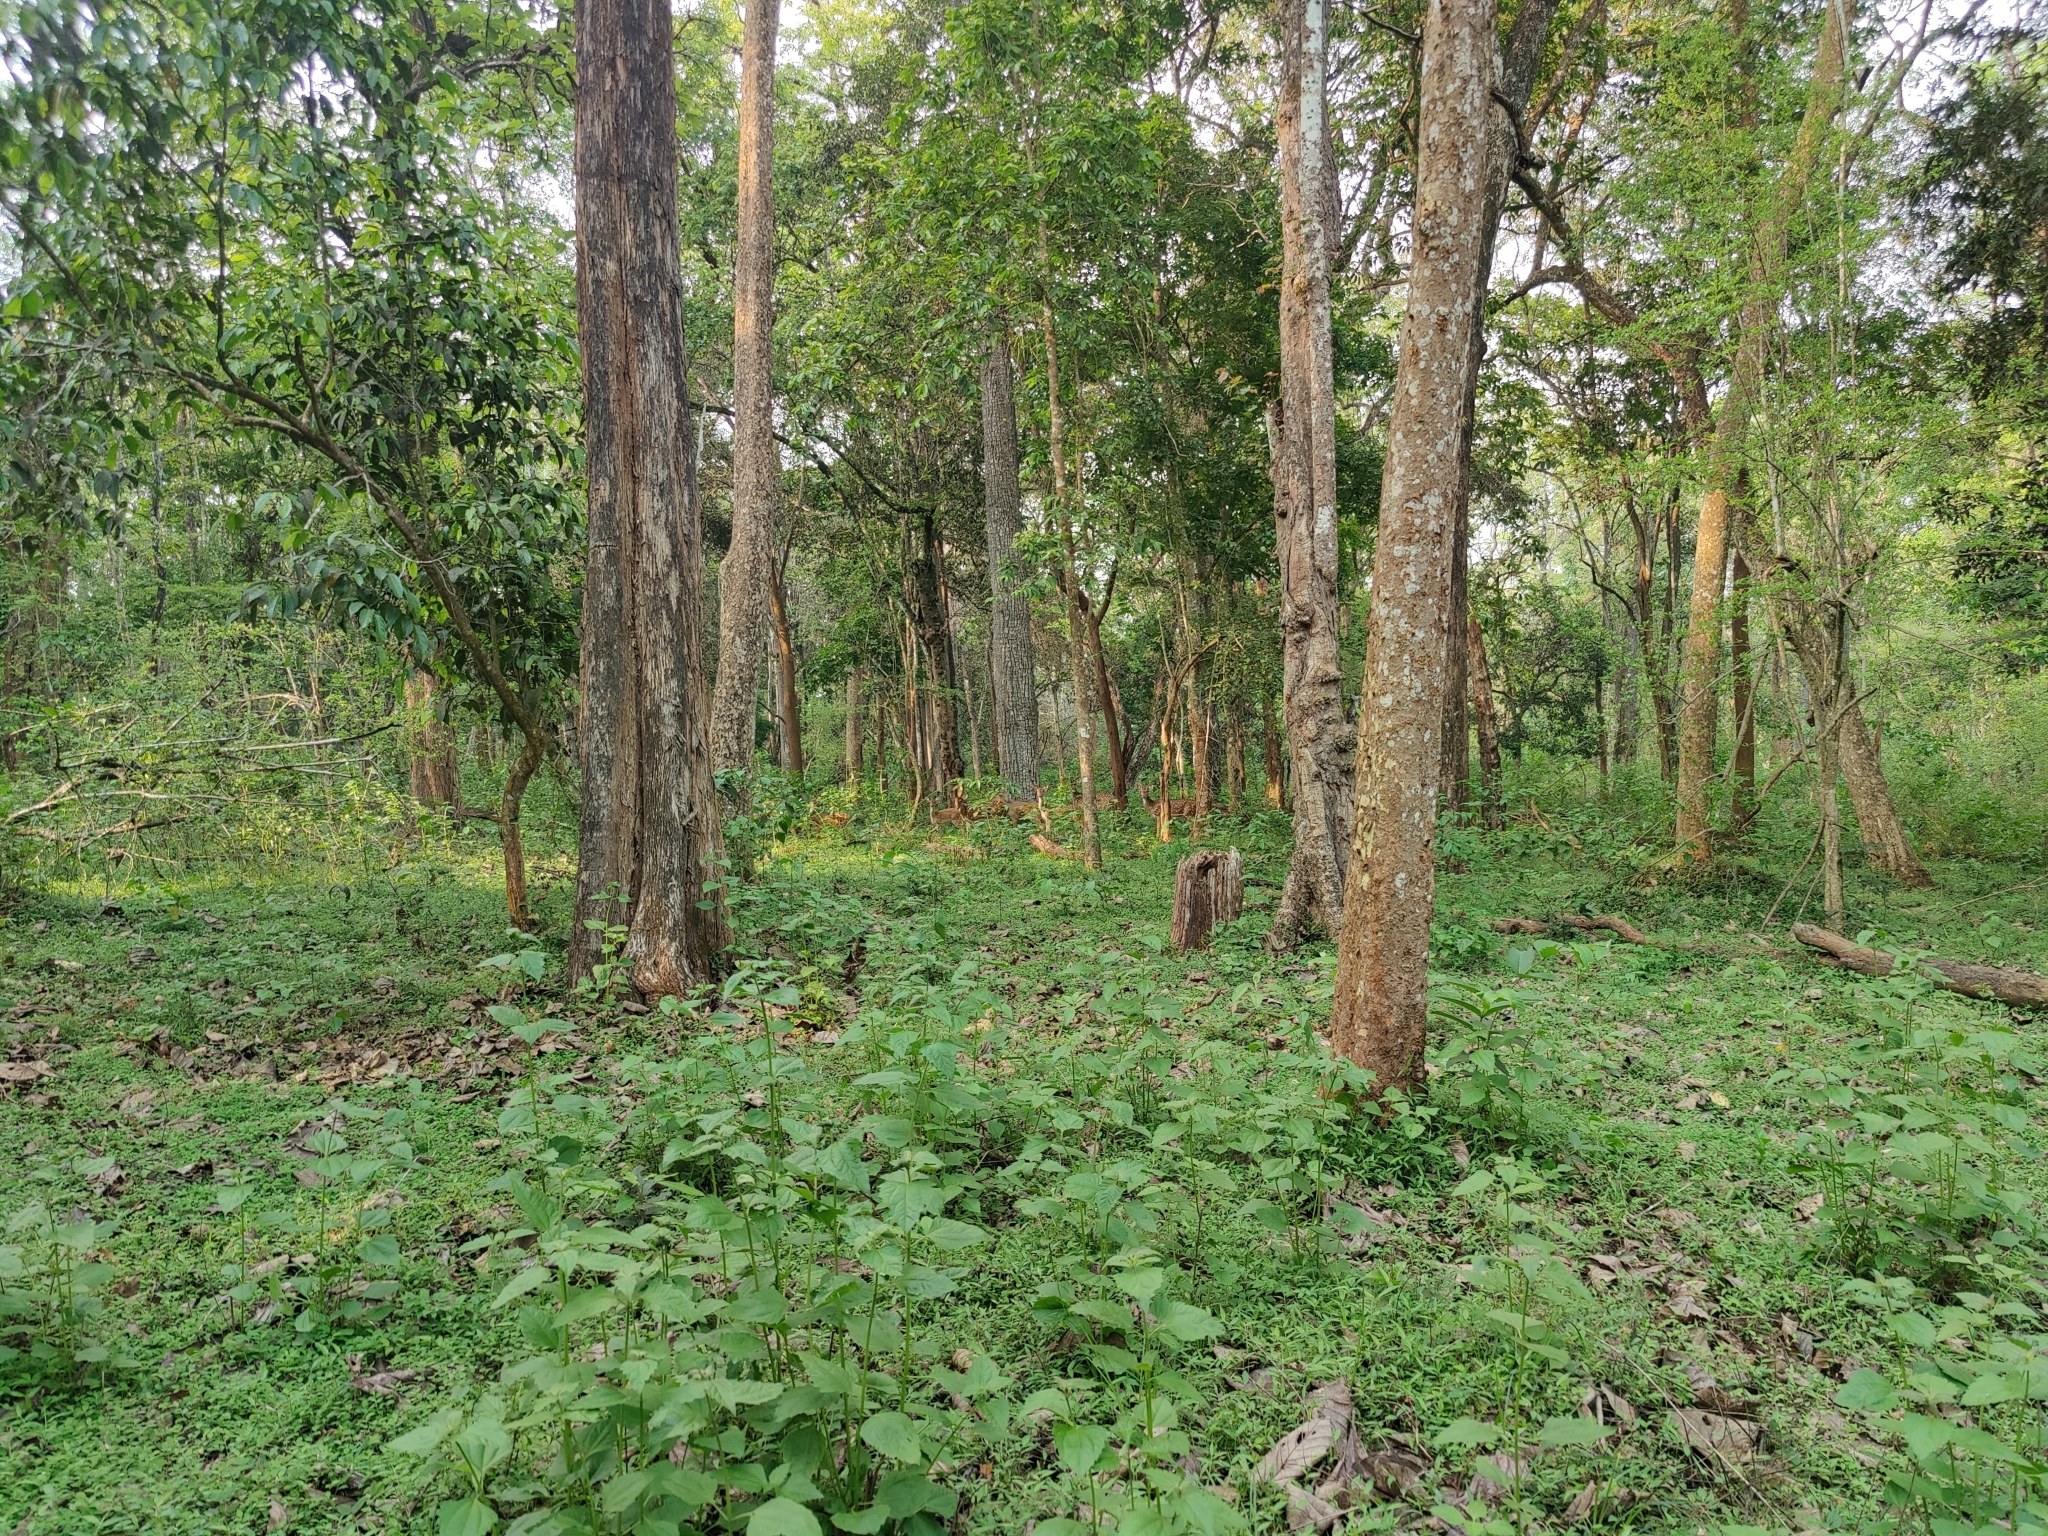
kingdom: Animalia
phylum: Chordata
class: Mammalia
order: Artiodactyla
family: Cervidae
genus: Axis
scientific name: Axis axis
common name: Chital
